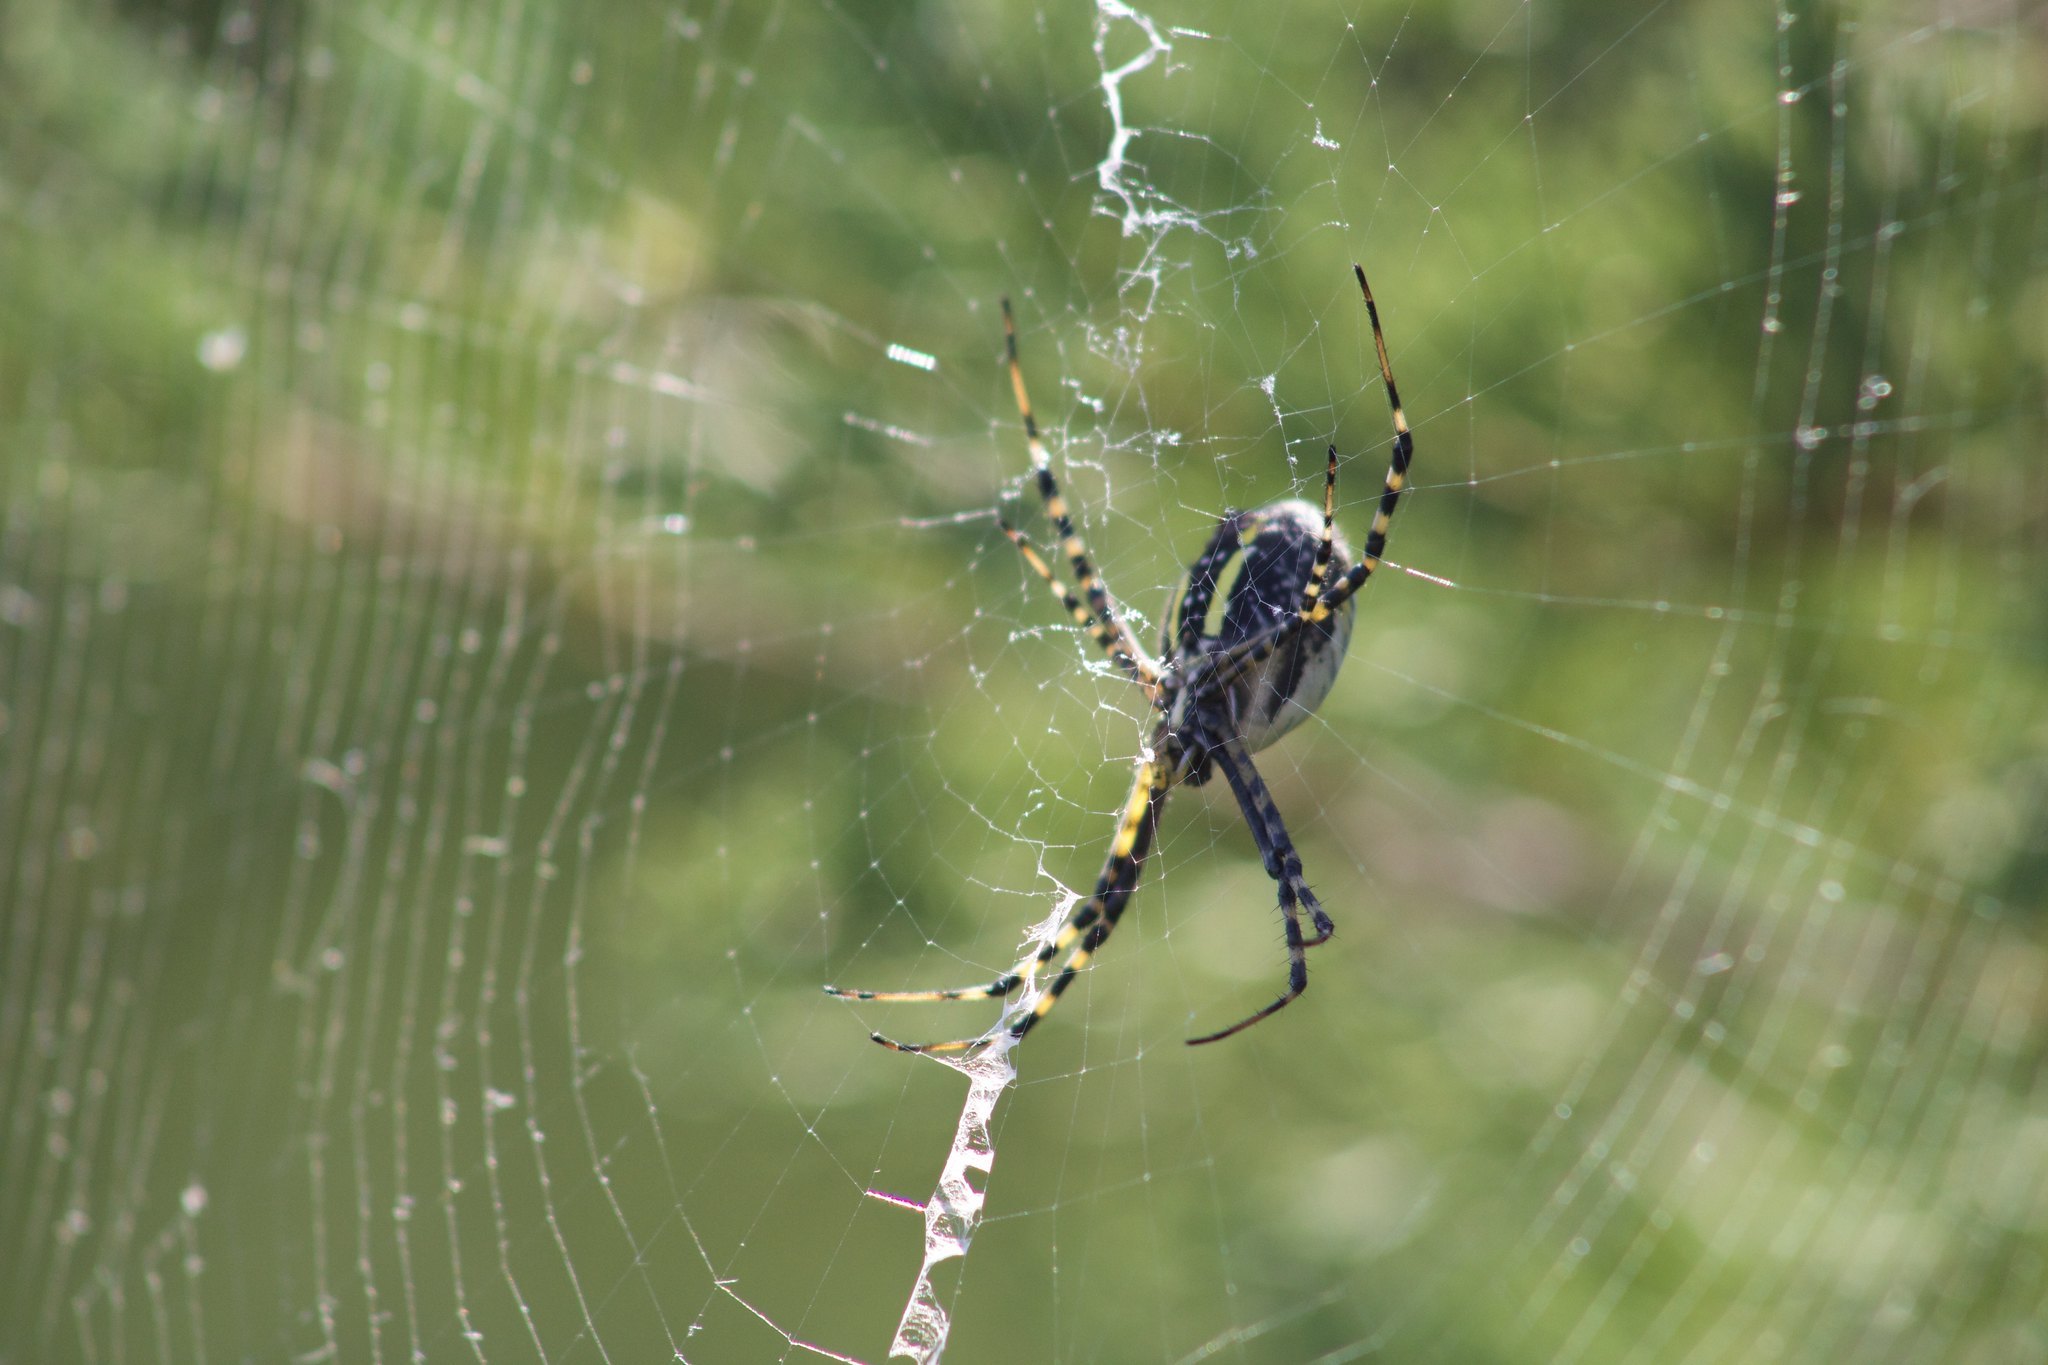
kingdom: Animalia
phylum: Arthropoda
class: Arachnida
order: Araneae
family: Araneidae
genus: Argiope
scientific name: Argiope trifasciata
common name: Banded garden spider
